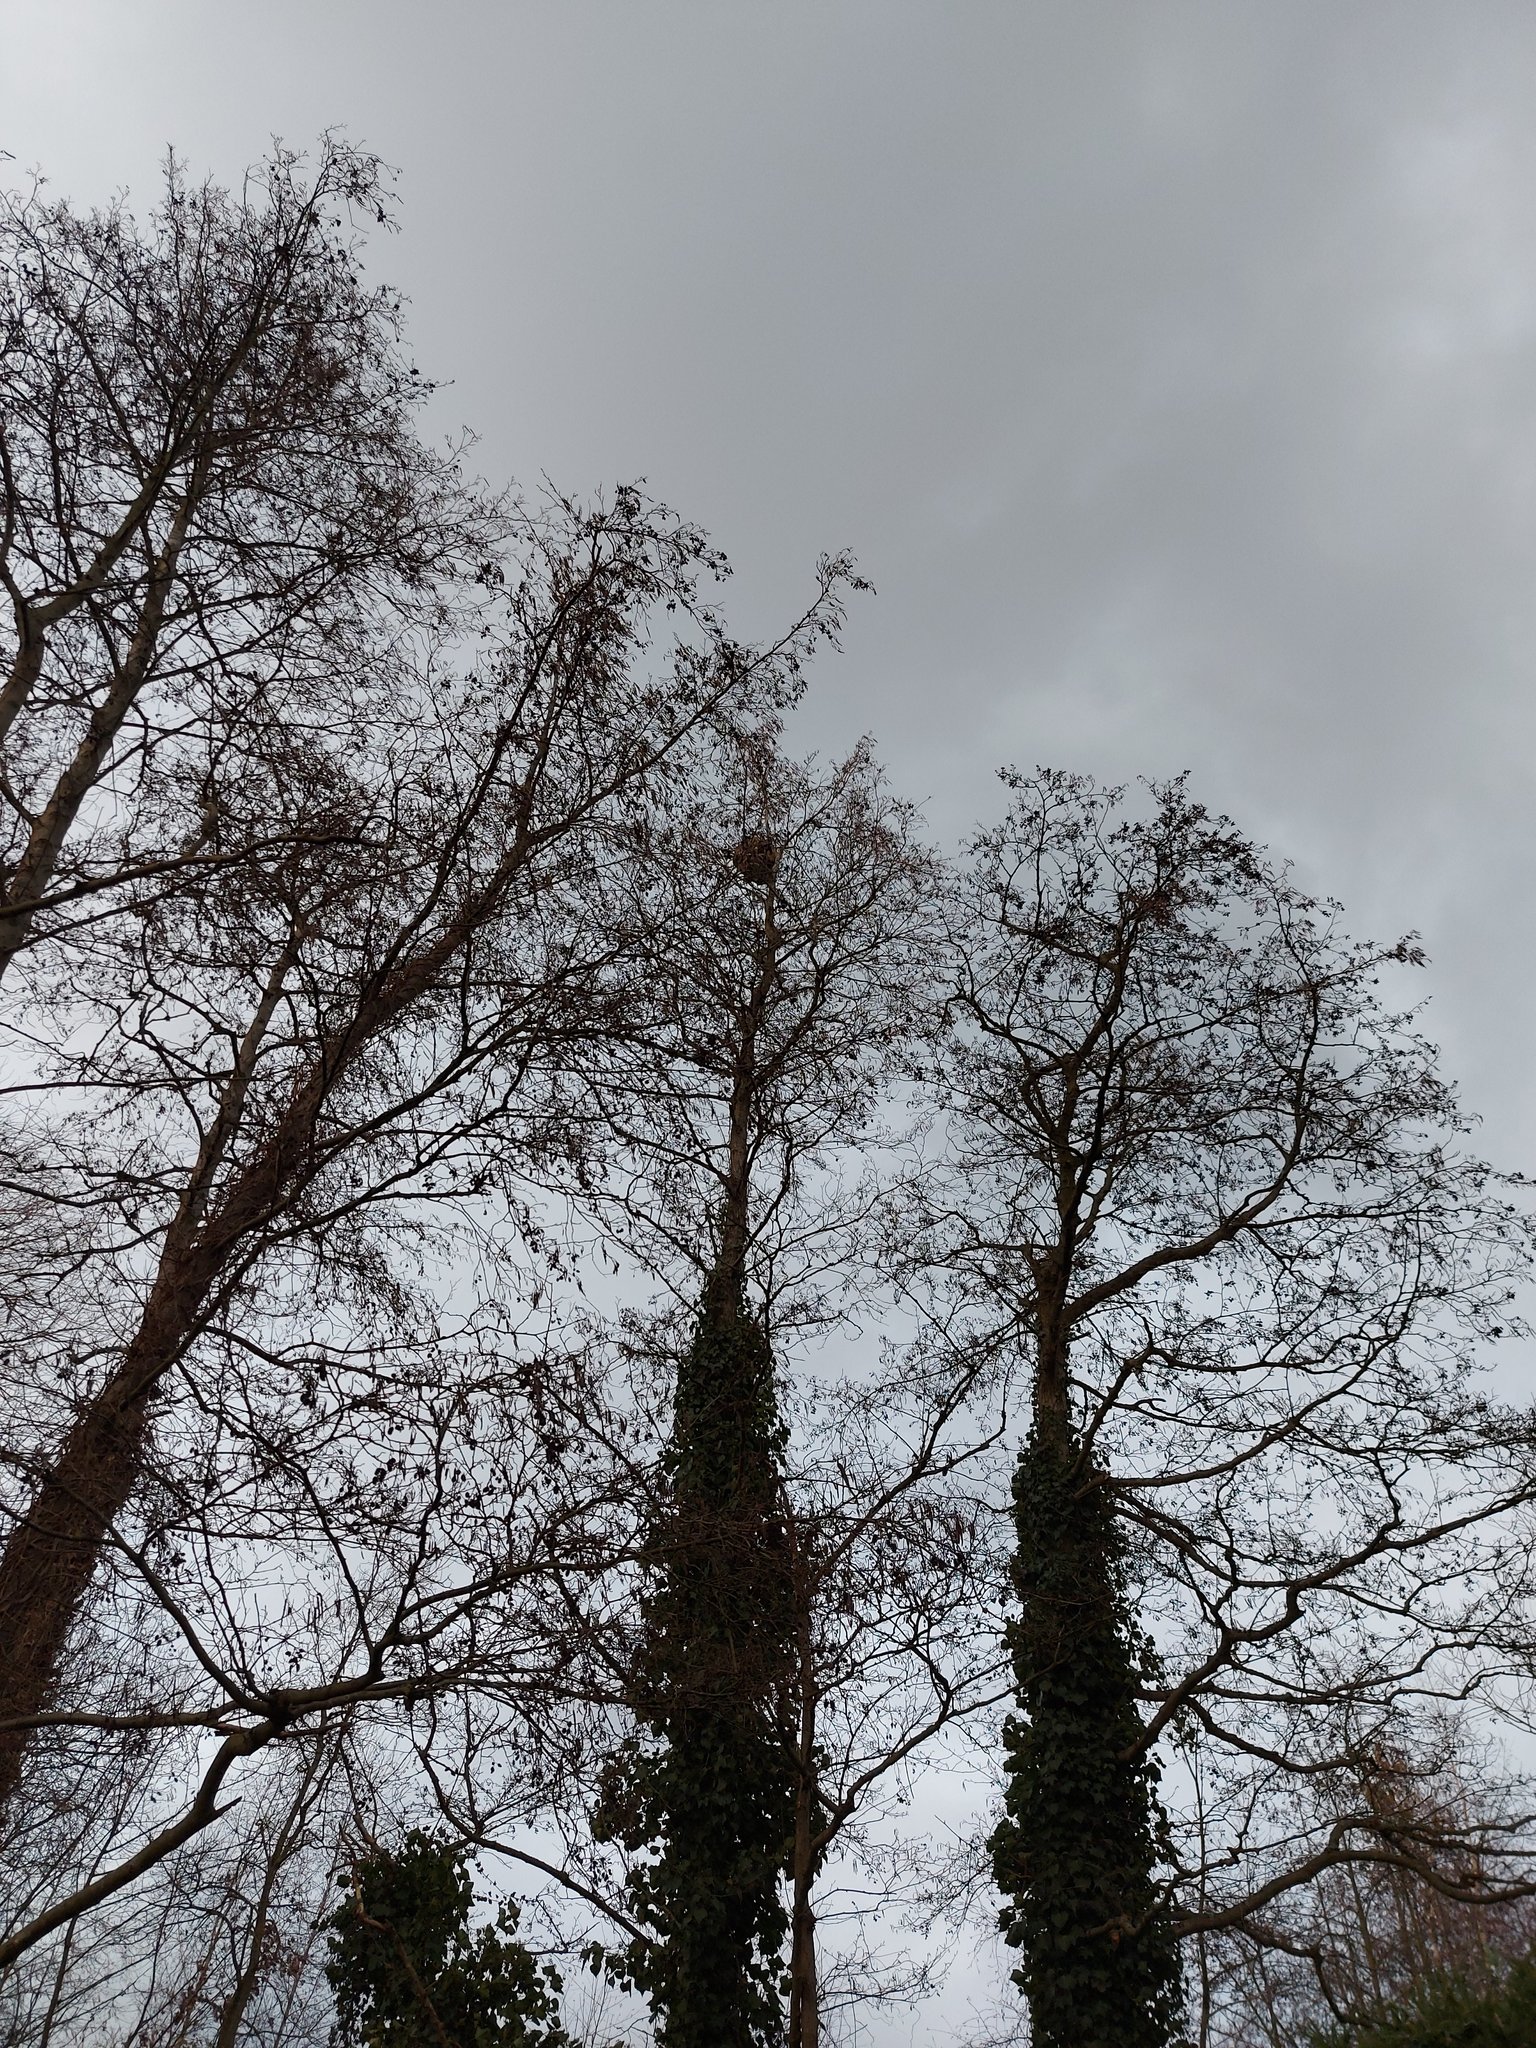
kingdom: Animalia
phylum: Arthropoda
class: Insecta
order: Hymenoptera
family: Vespidae
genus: Vespa
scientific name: Vespa velutina
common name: Asian hornet
